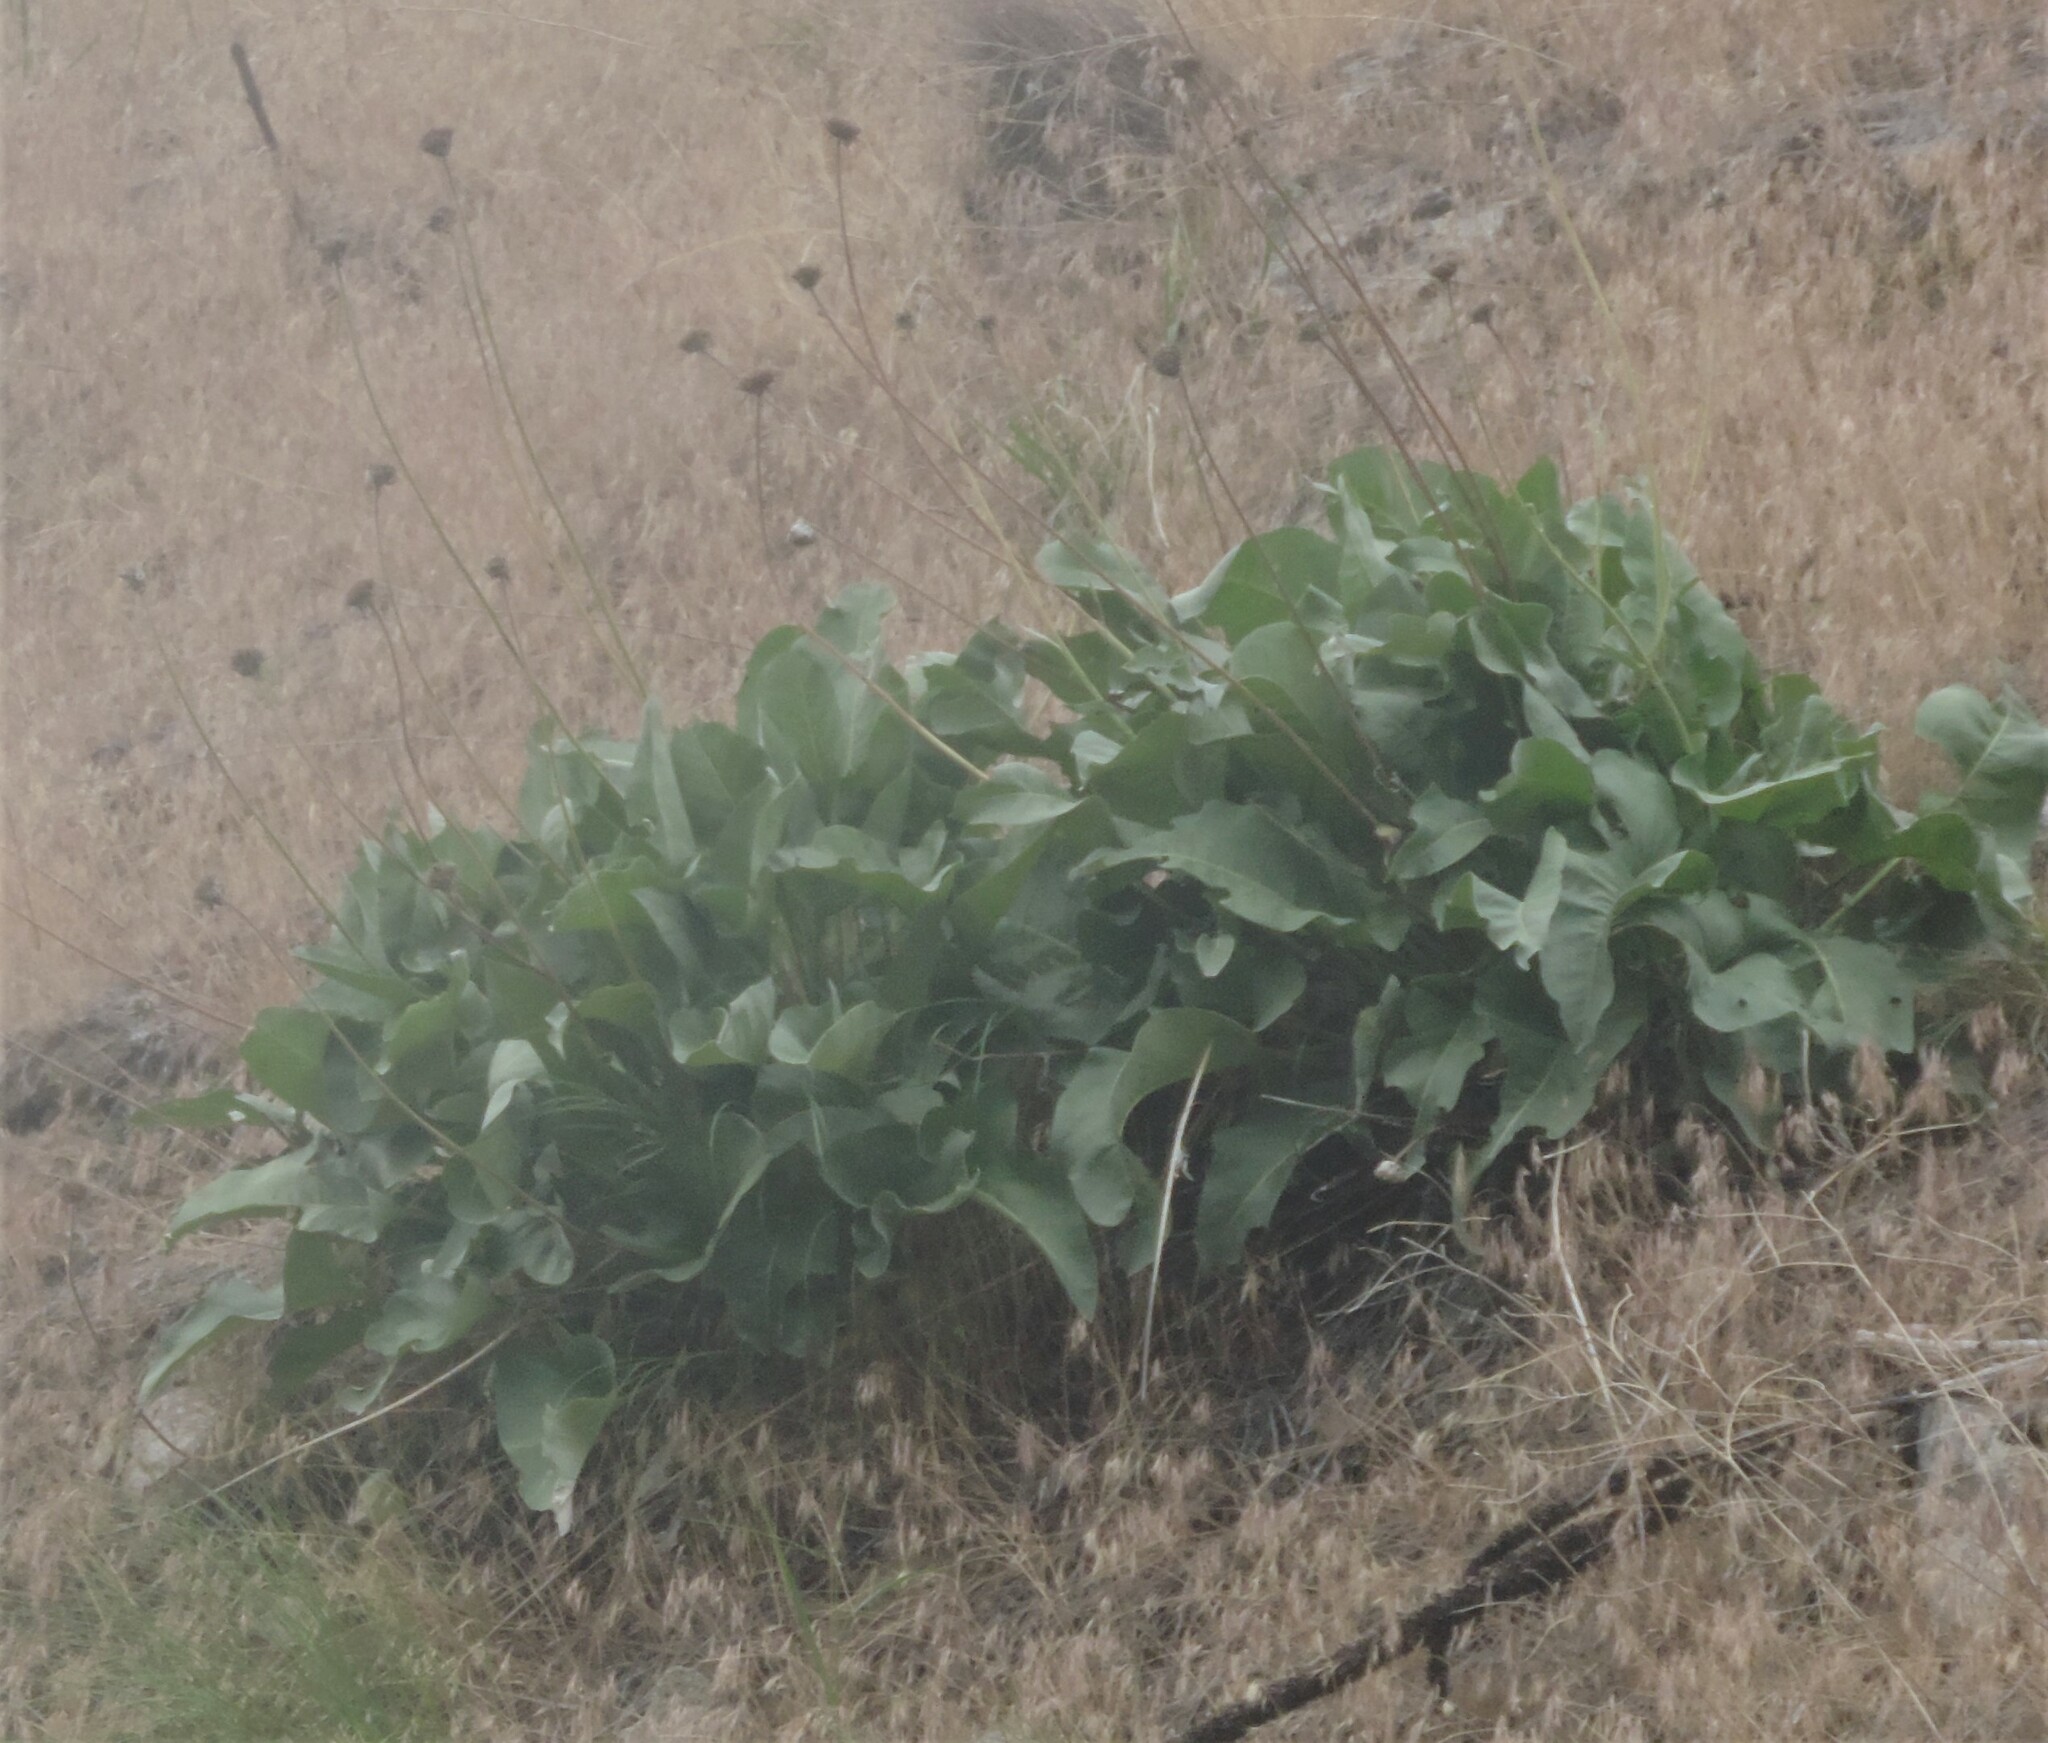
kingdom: Plantae
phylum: Tracheophyta
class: Magnoliopsida
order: Asterales
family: Asteraceae
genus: Wyethia
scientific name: Wyethia sagittata
